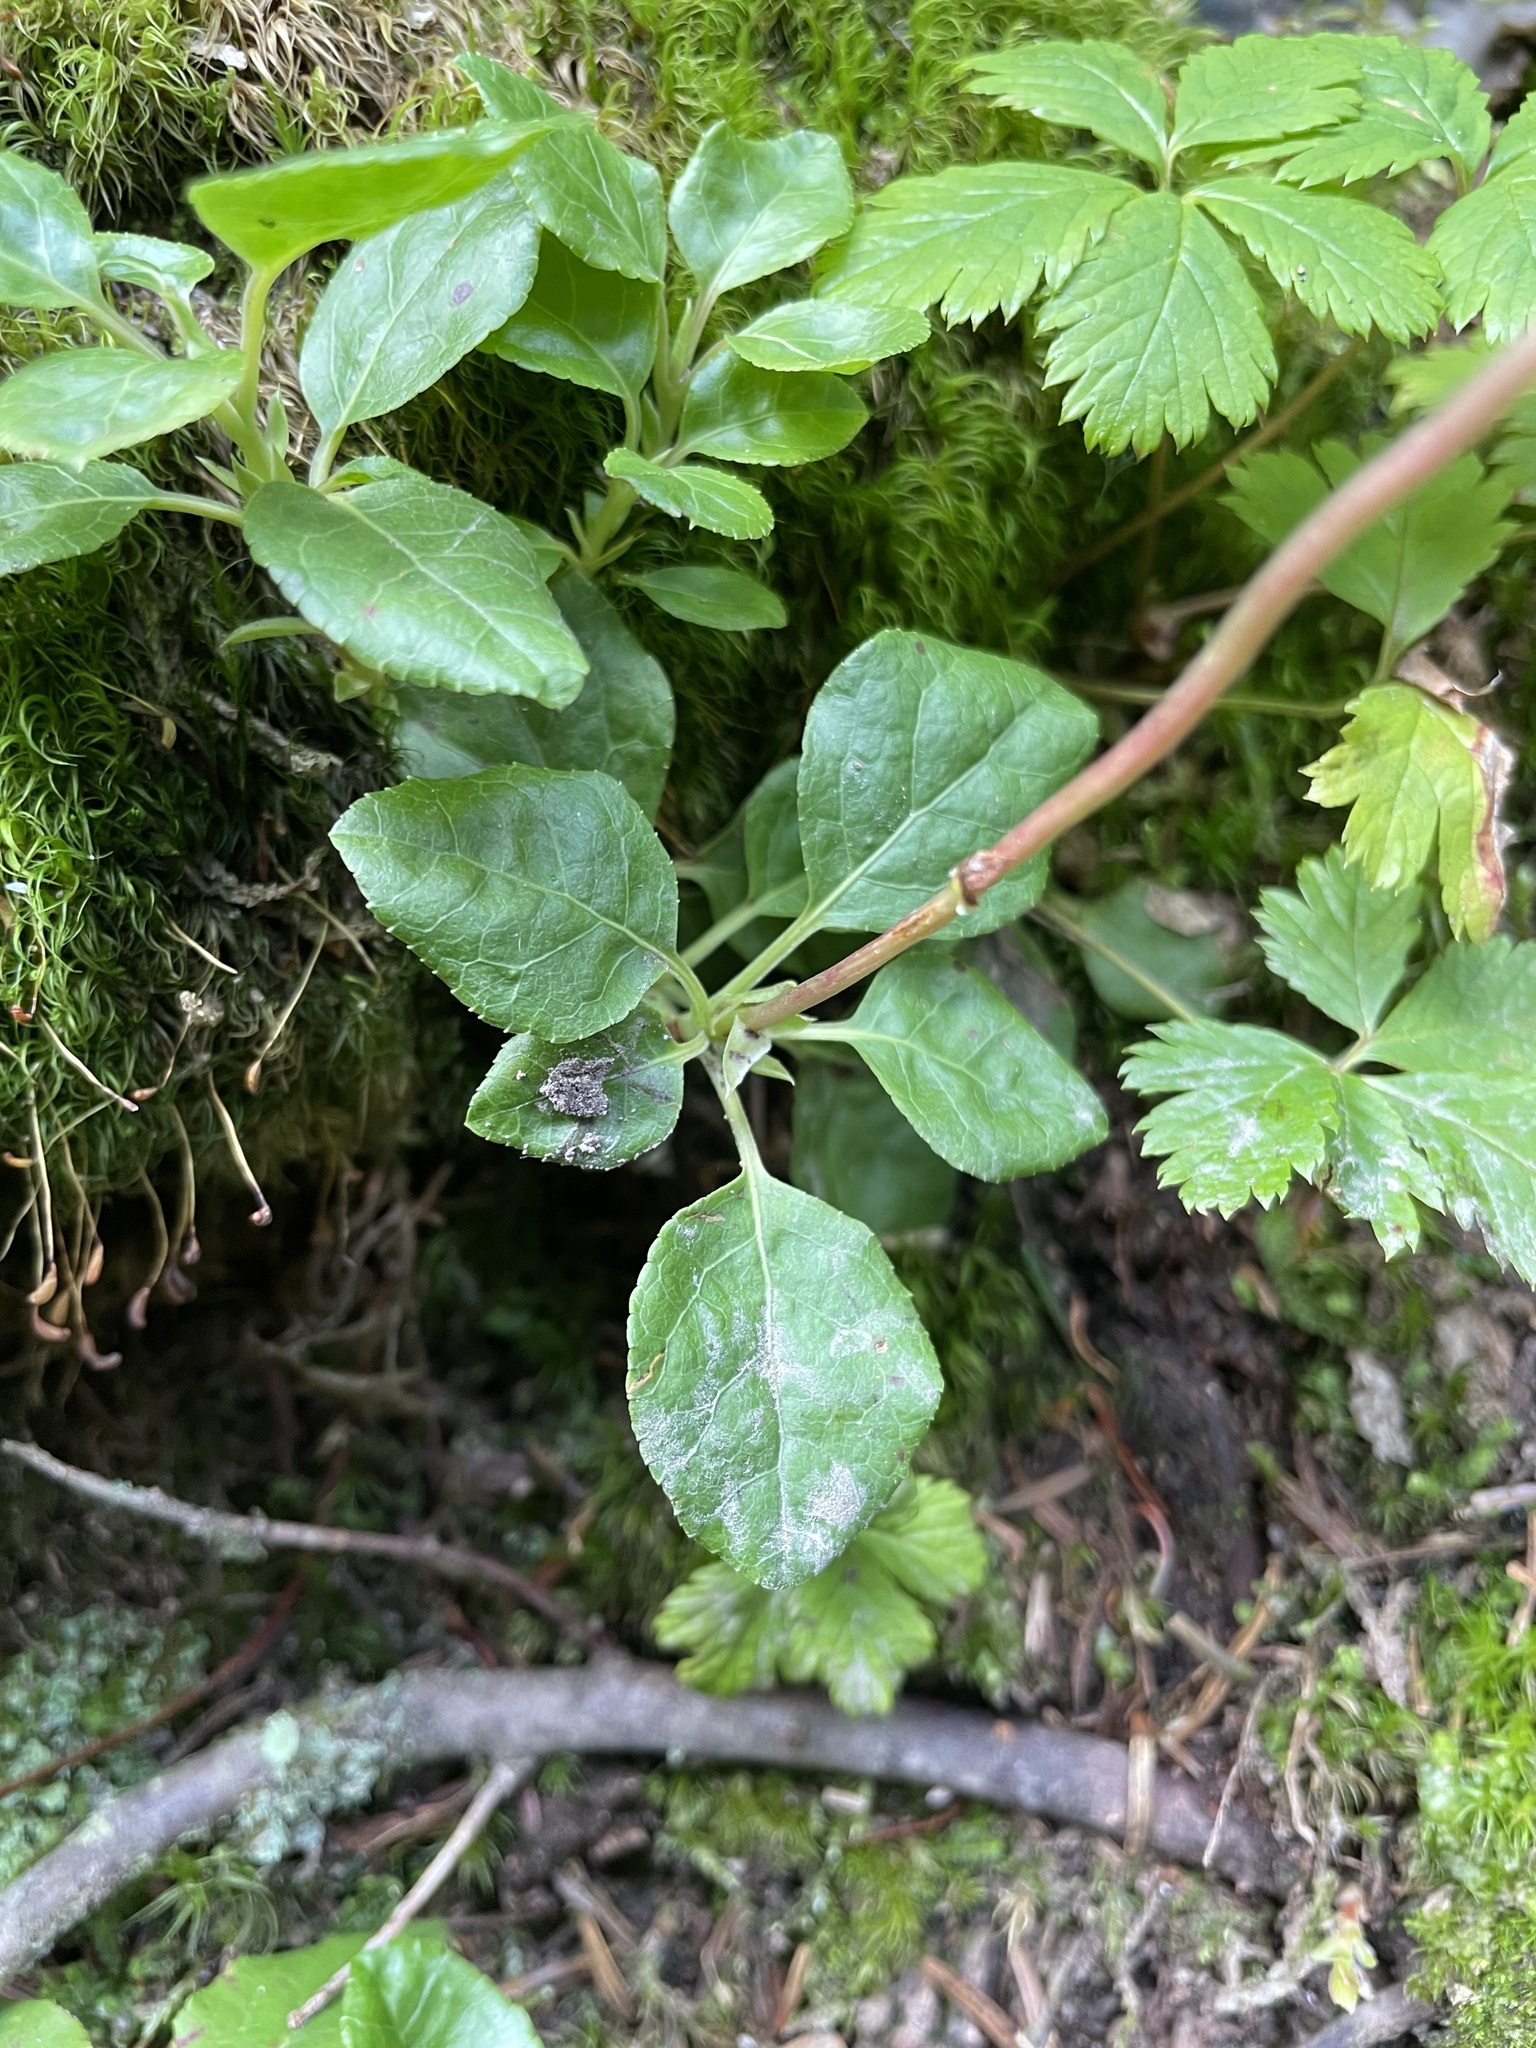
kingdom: Plantae
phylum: Tracheophyta
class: Magnoliopsida
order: Ericales
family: Ericaceae
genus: Orthilia
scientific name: Orthilia secunda
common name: One-sided orthilia
